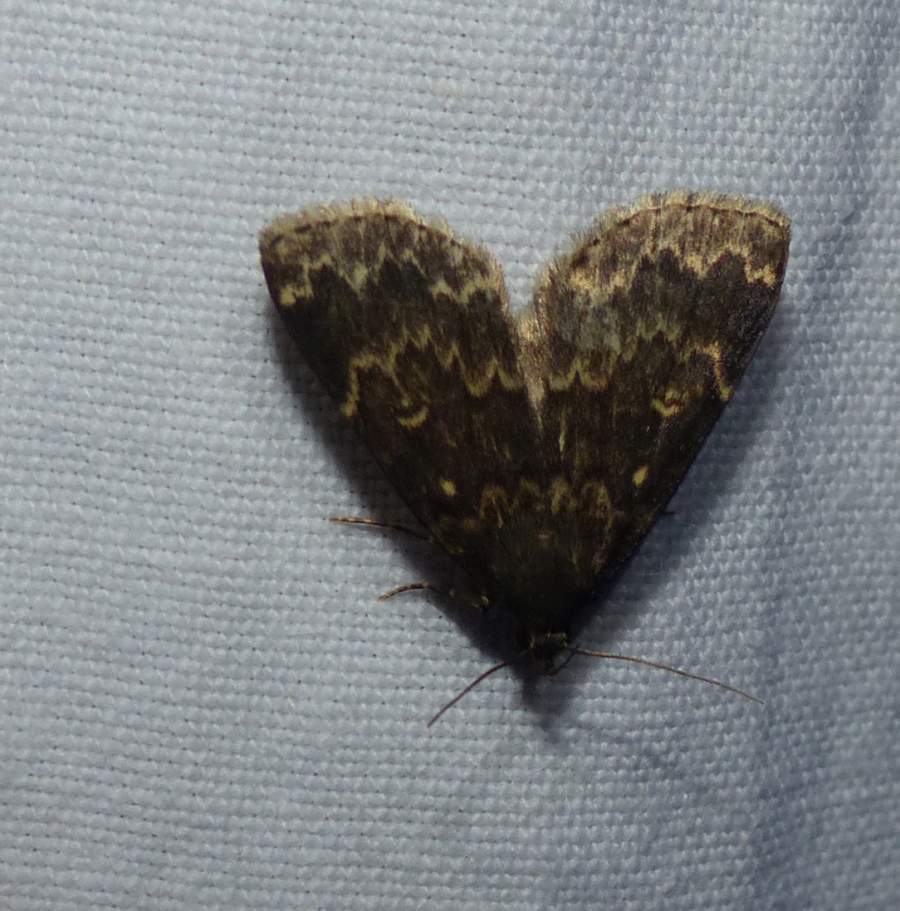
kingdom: Animalia
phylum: Arthropoda
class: Insecta
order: Lepidoptera
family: Erebidae
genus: Idia
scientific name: Idia lubricalis
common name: Twin-striped tabby
